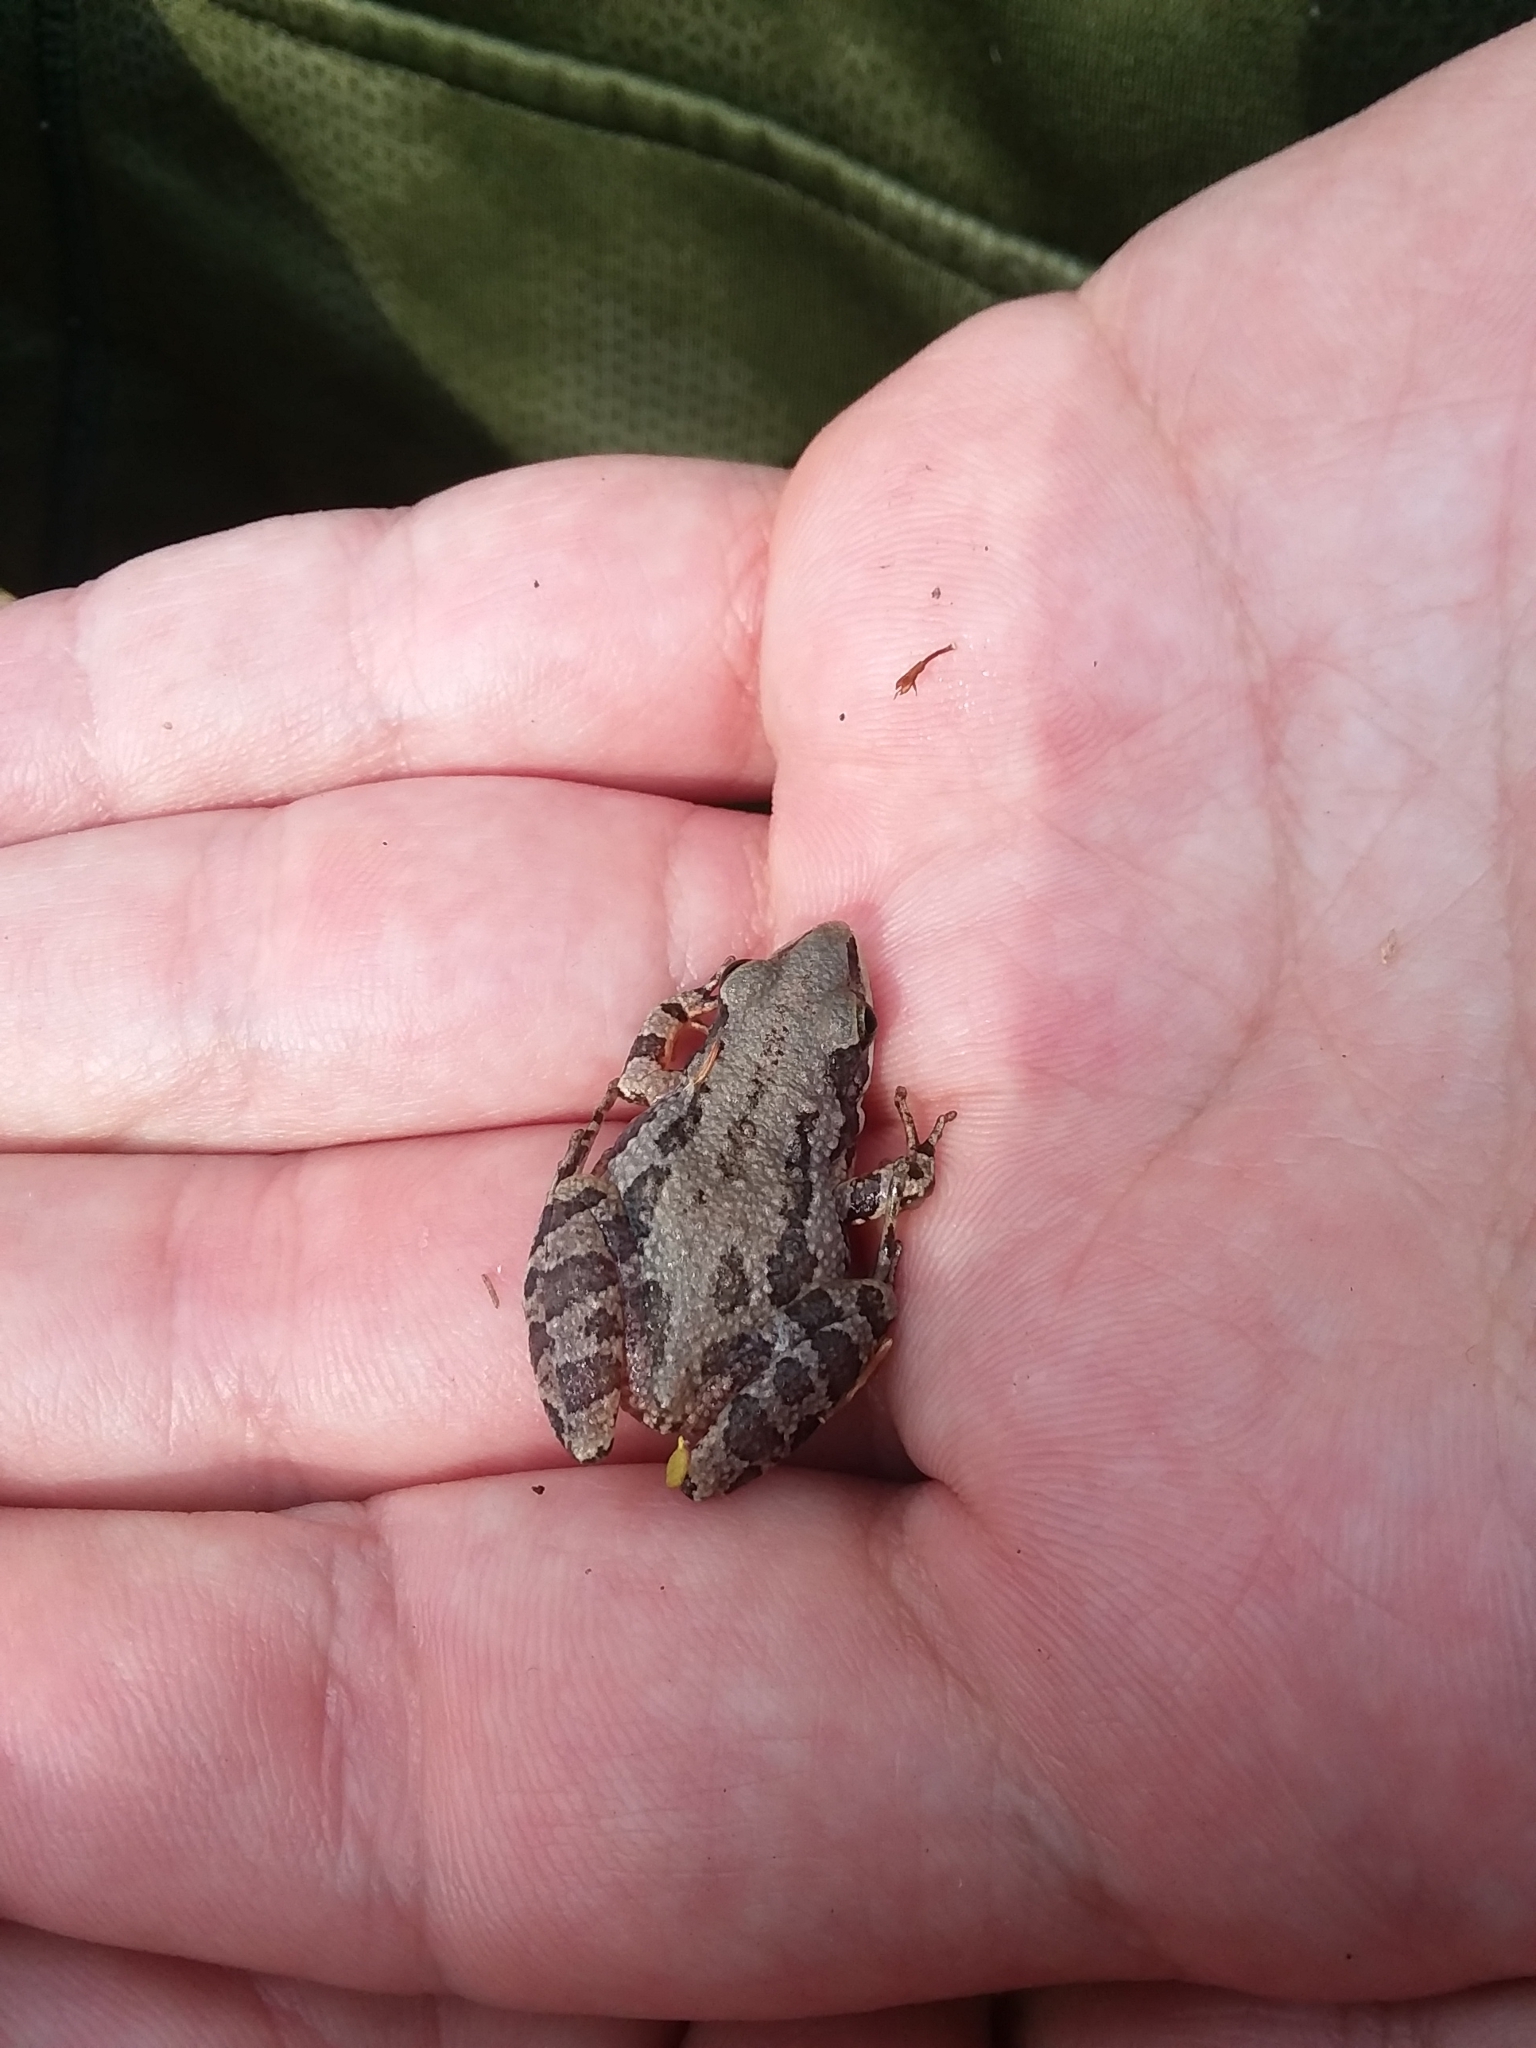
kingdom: Animalia
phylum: Chordata
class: Amphibia
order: Anura
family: Hylidae
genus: Pseudacris
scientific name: Pseudacris nigrita
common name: Southern chorus frog
